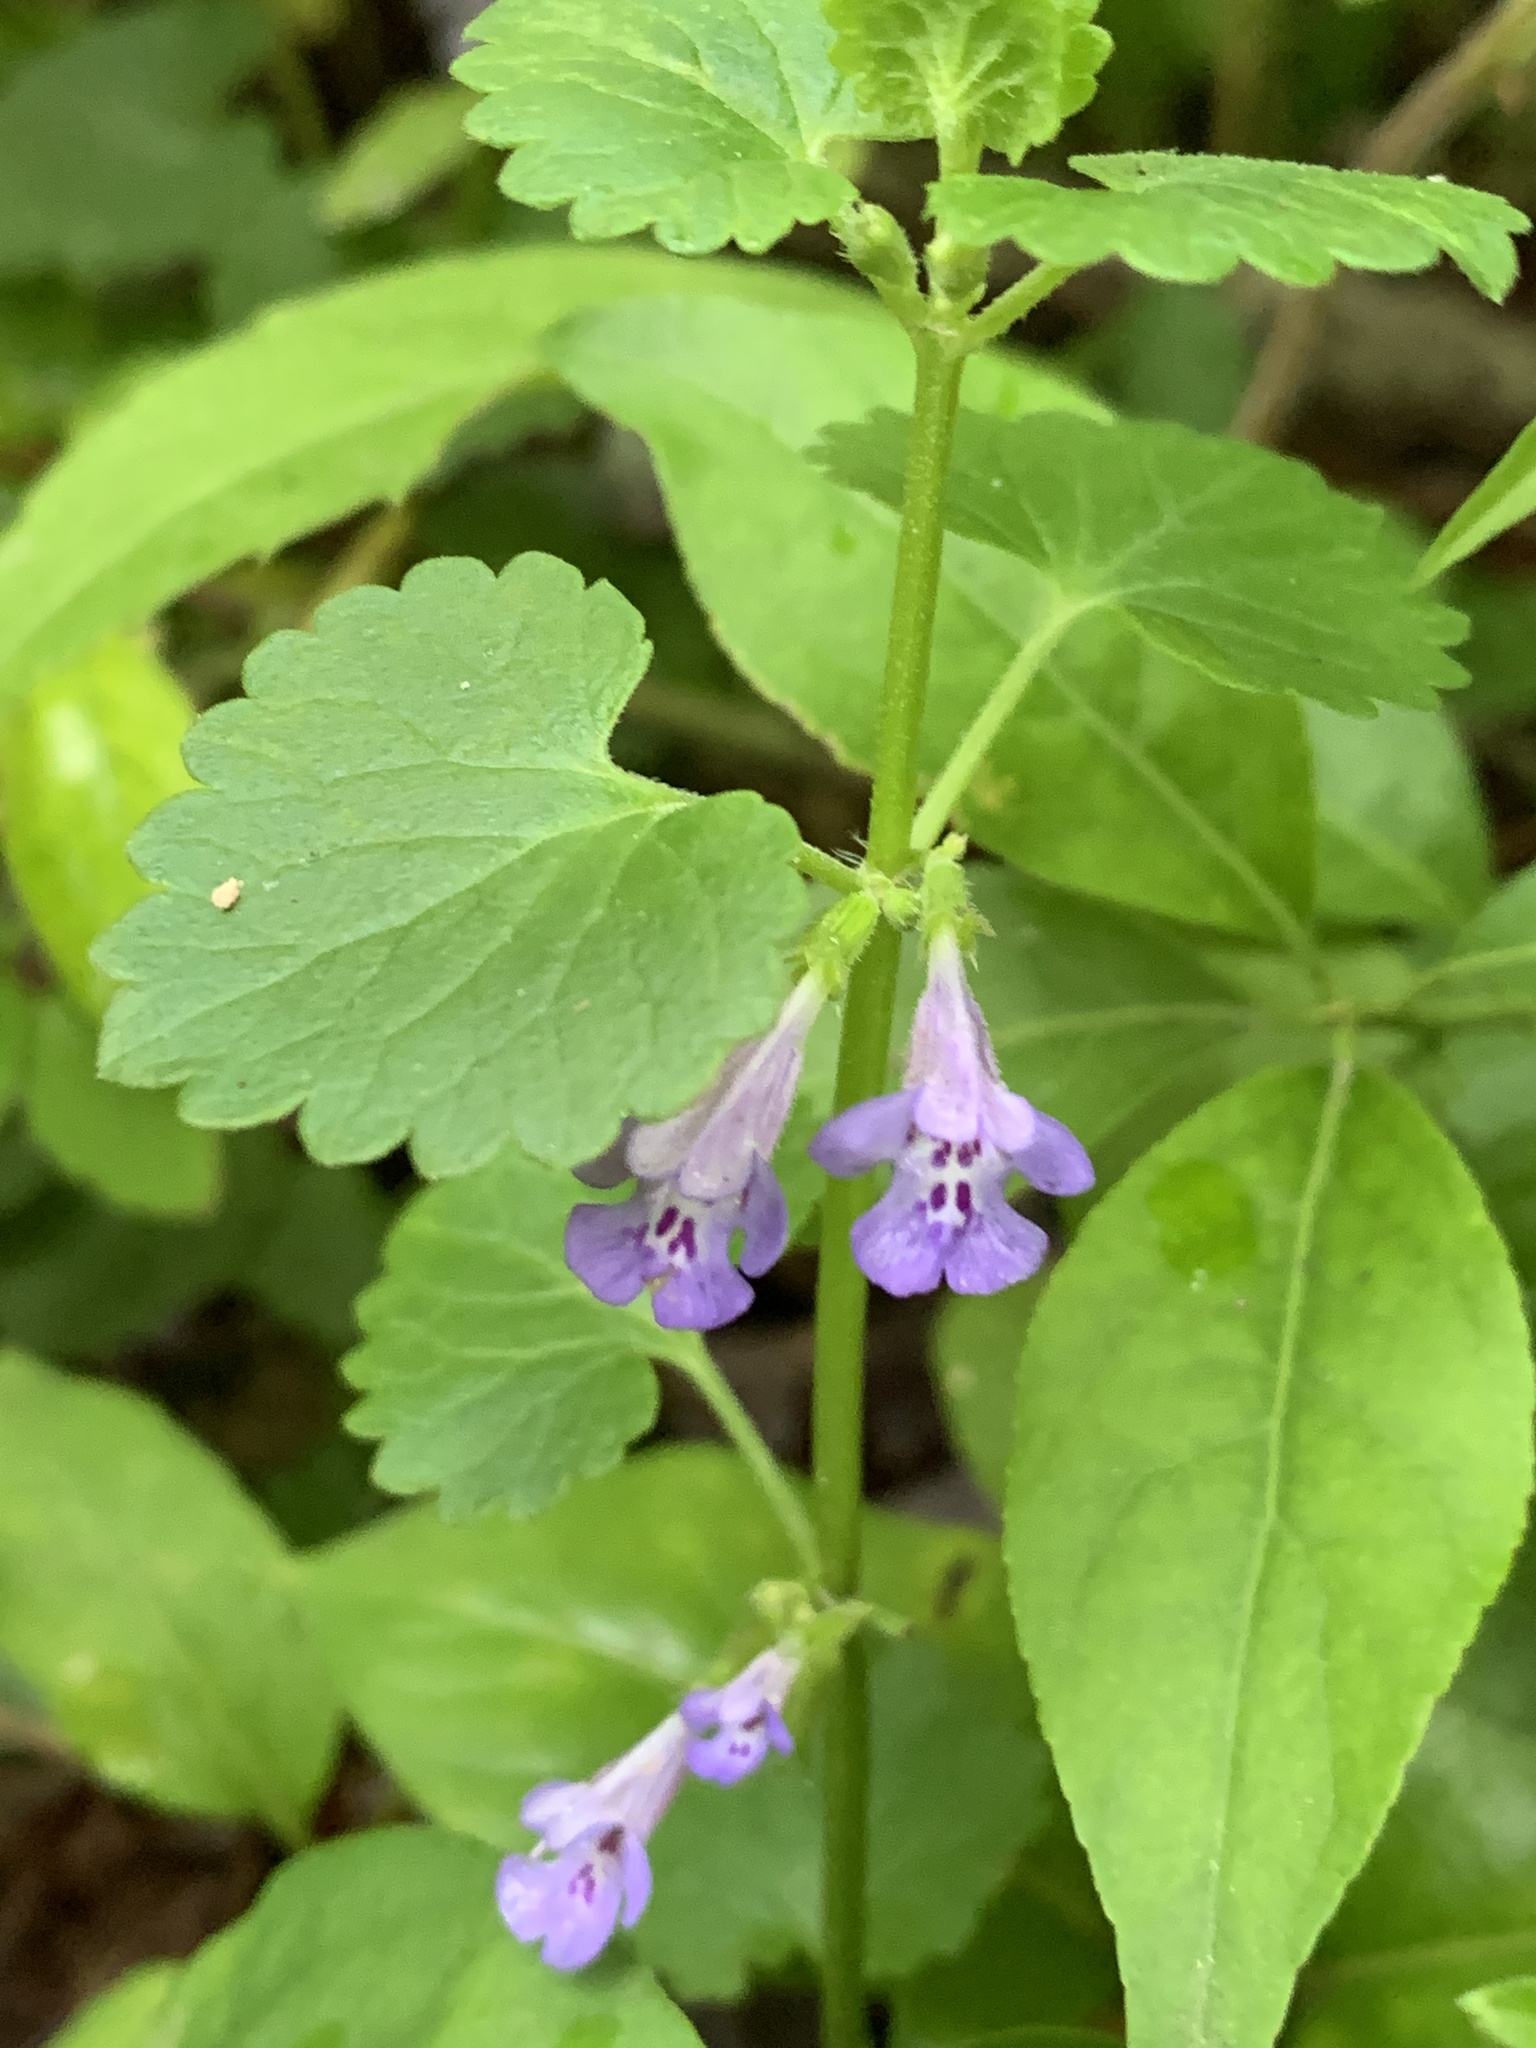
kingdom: Plantae
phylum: Tracheophyta
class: Magnoliopsida
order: Lamiales
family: Lamiaceae
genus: Glechoma
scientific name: Glechoma hederacea
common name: Ground ivy
